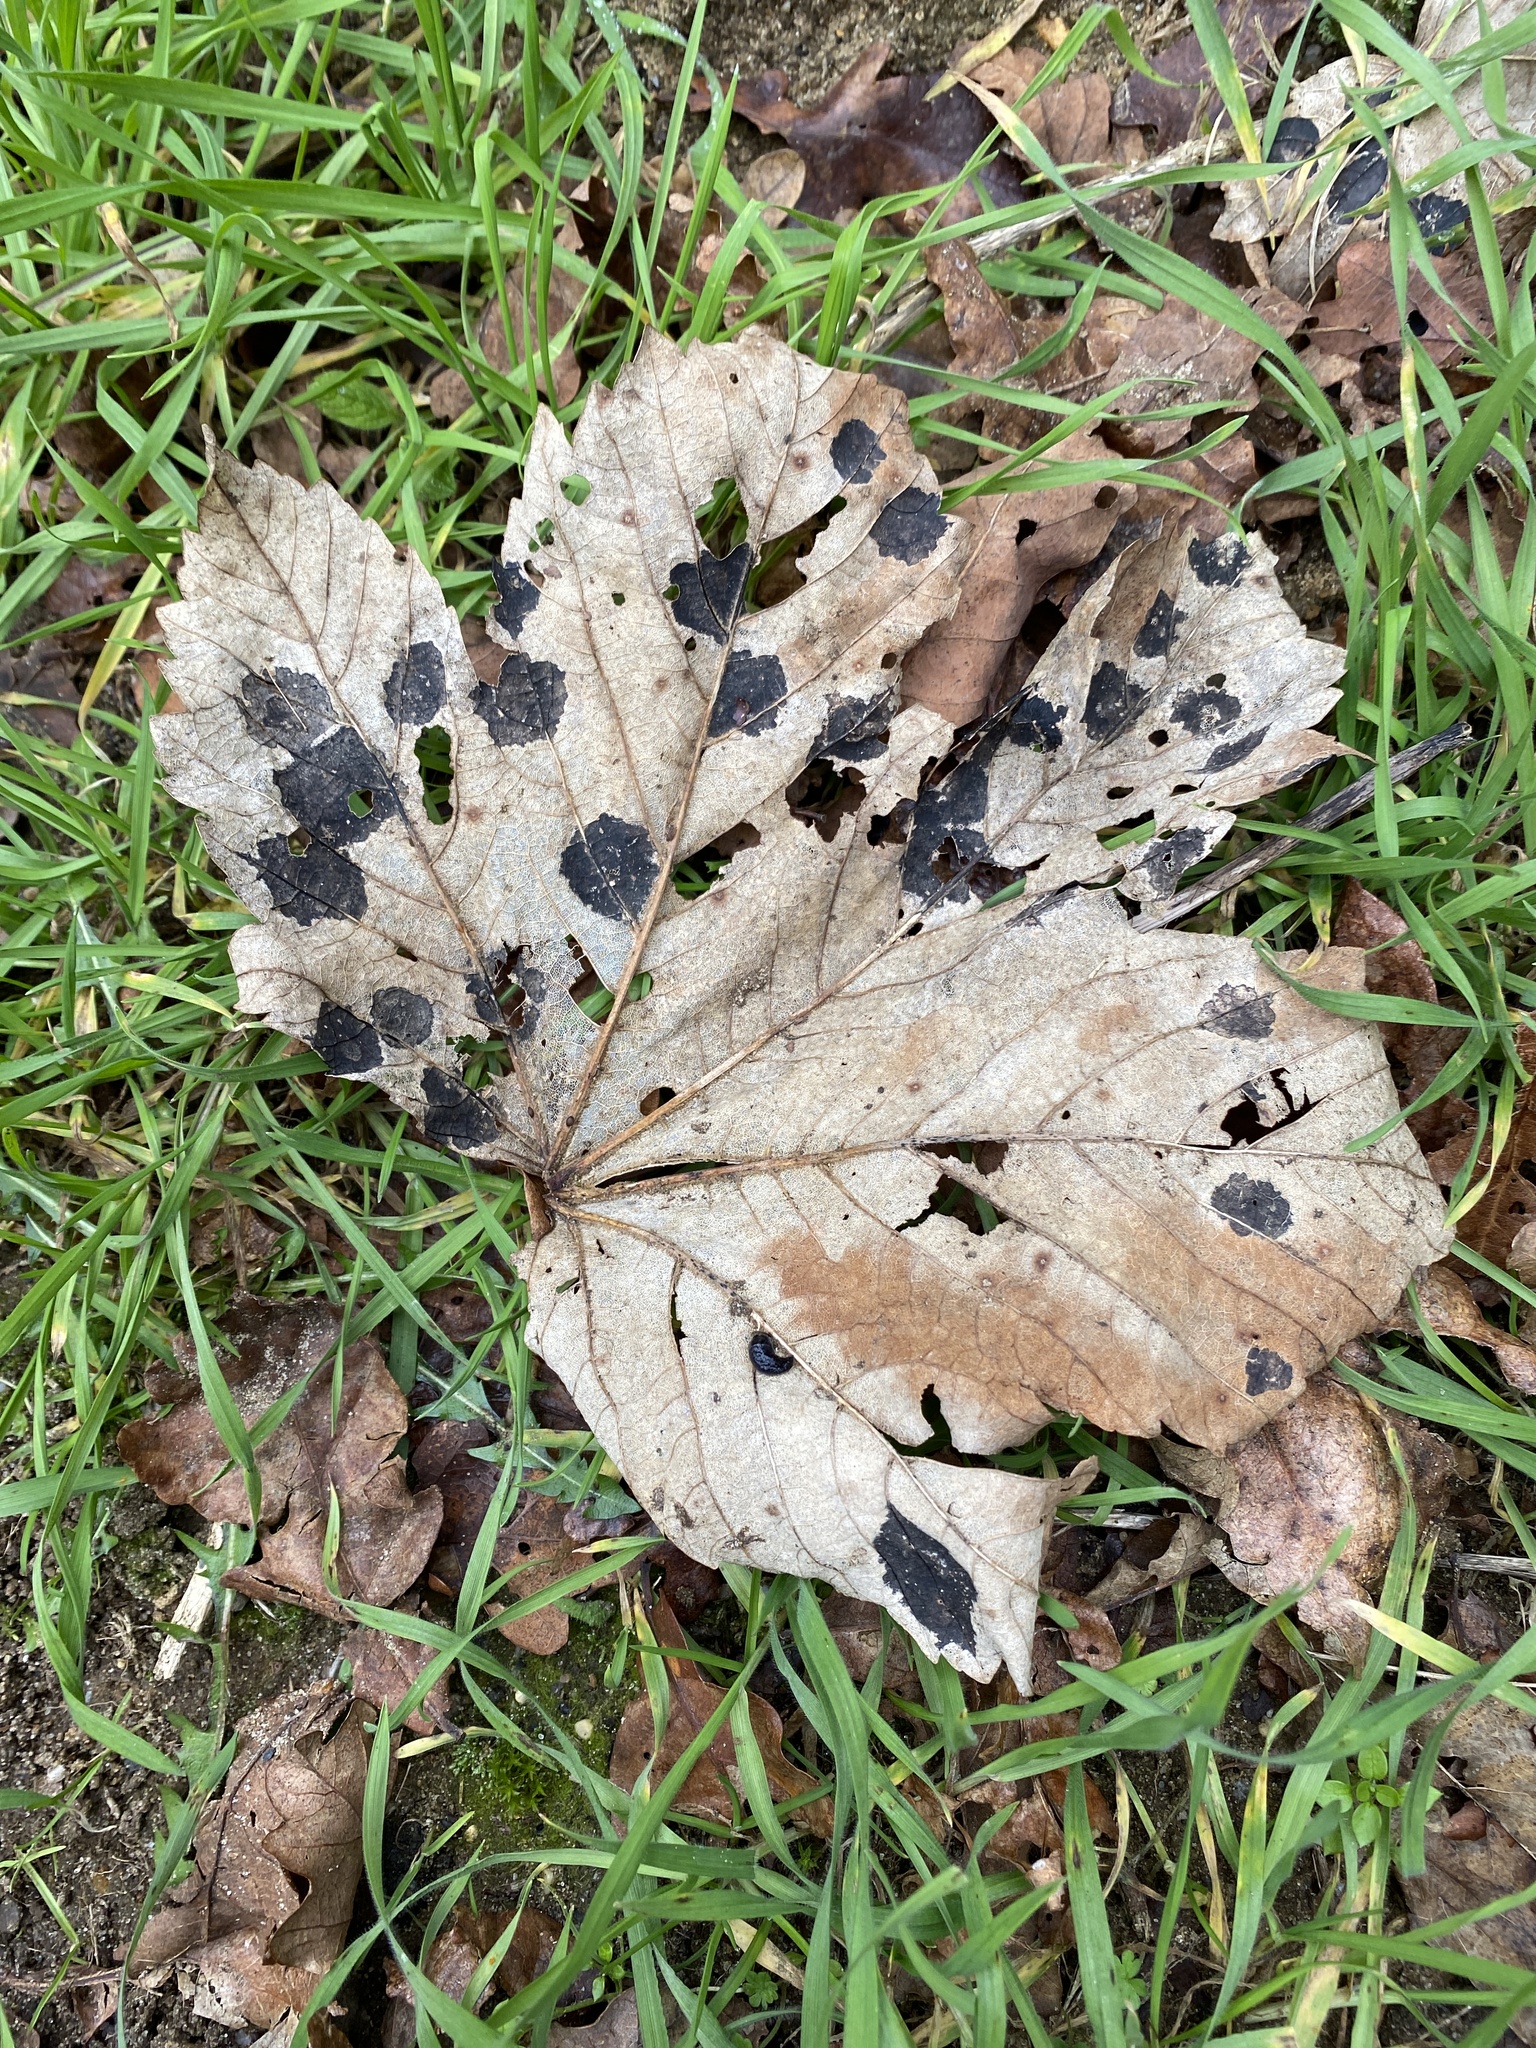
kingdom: Fungi
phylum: Ascomycota
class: Leotiomycetes
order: Rhytismatales
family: Rhytismataceae
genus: Rhytisma
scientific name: Rhytisma acerinum
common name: European tar spot
